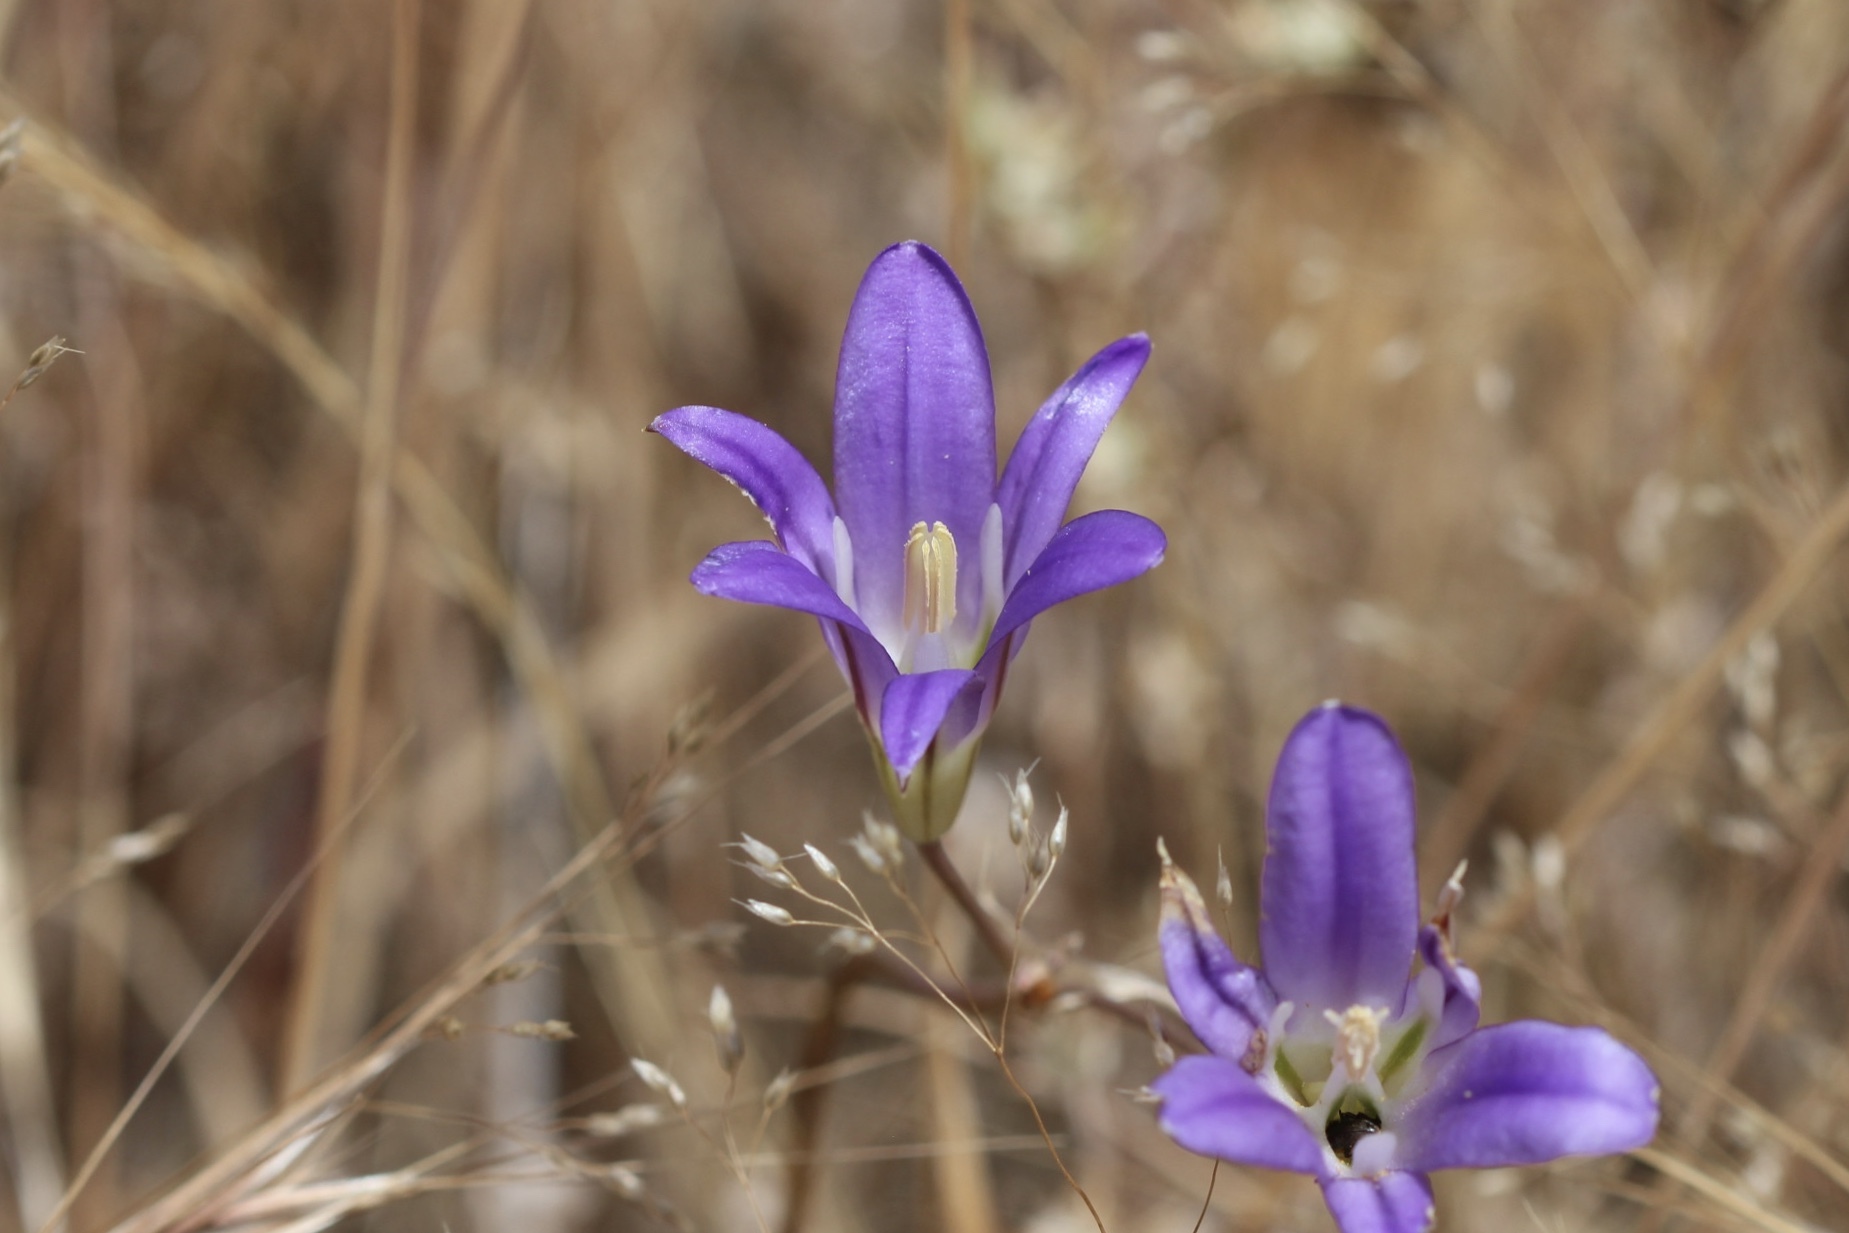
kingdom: Plantae
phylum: Tracheophyta
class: Liliopsida
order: Asparagales
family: Asparagaceae
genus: Brodiaea
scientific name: Brodiaea elegans
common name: Elegant cluster-lily
